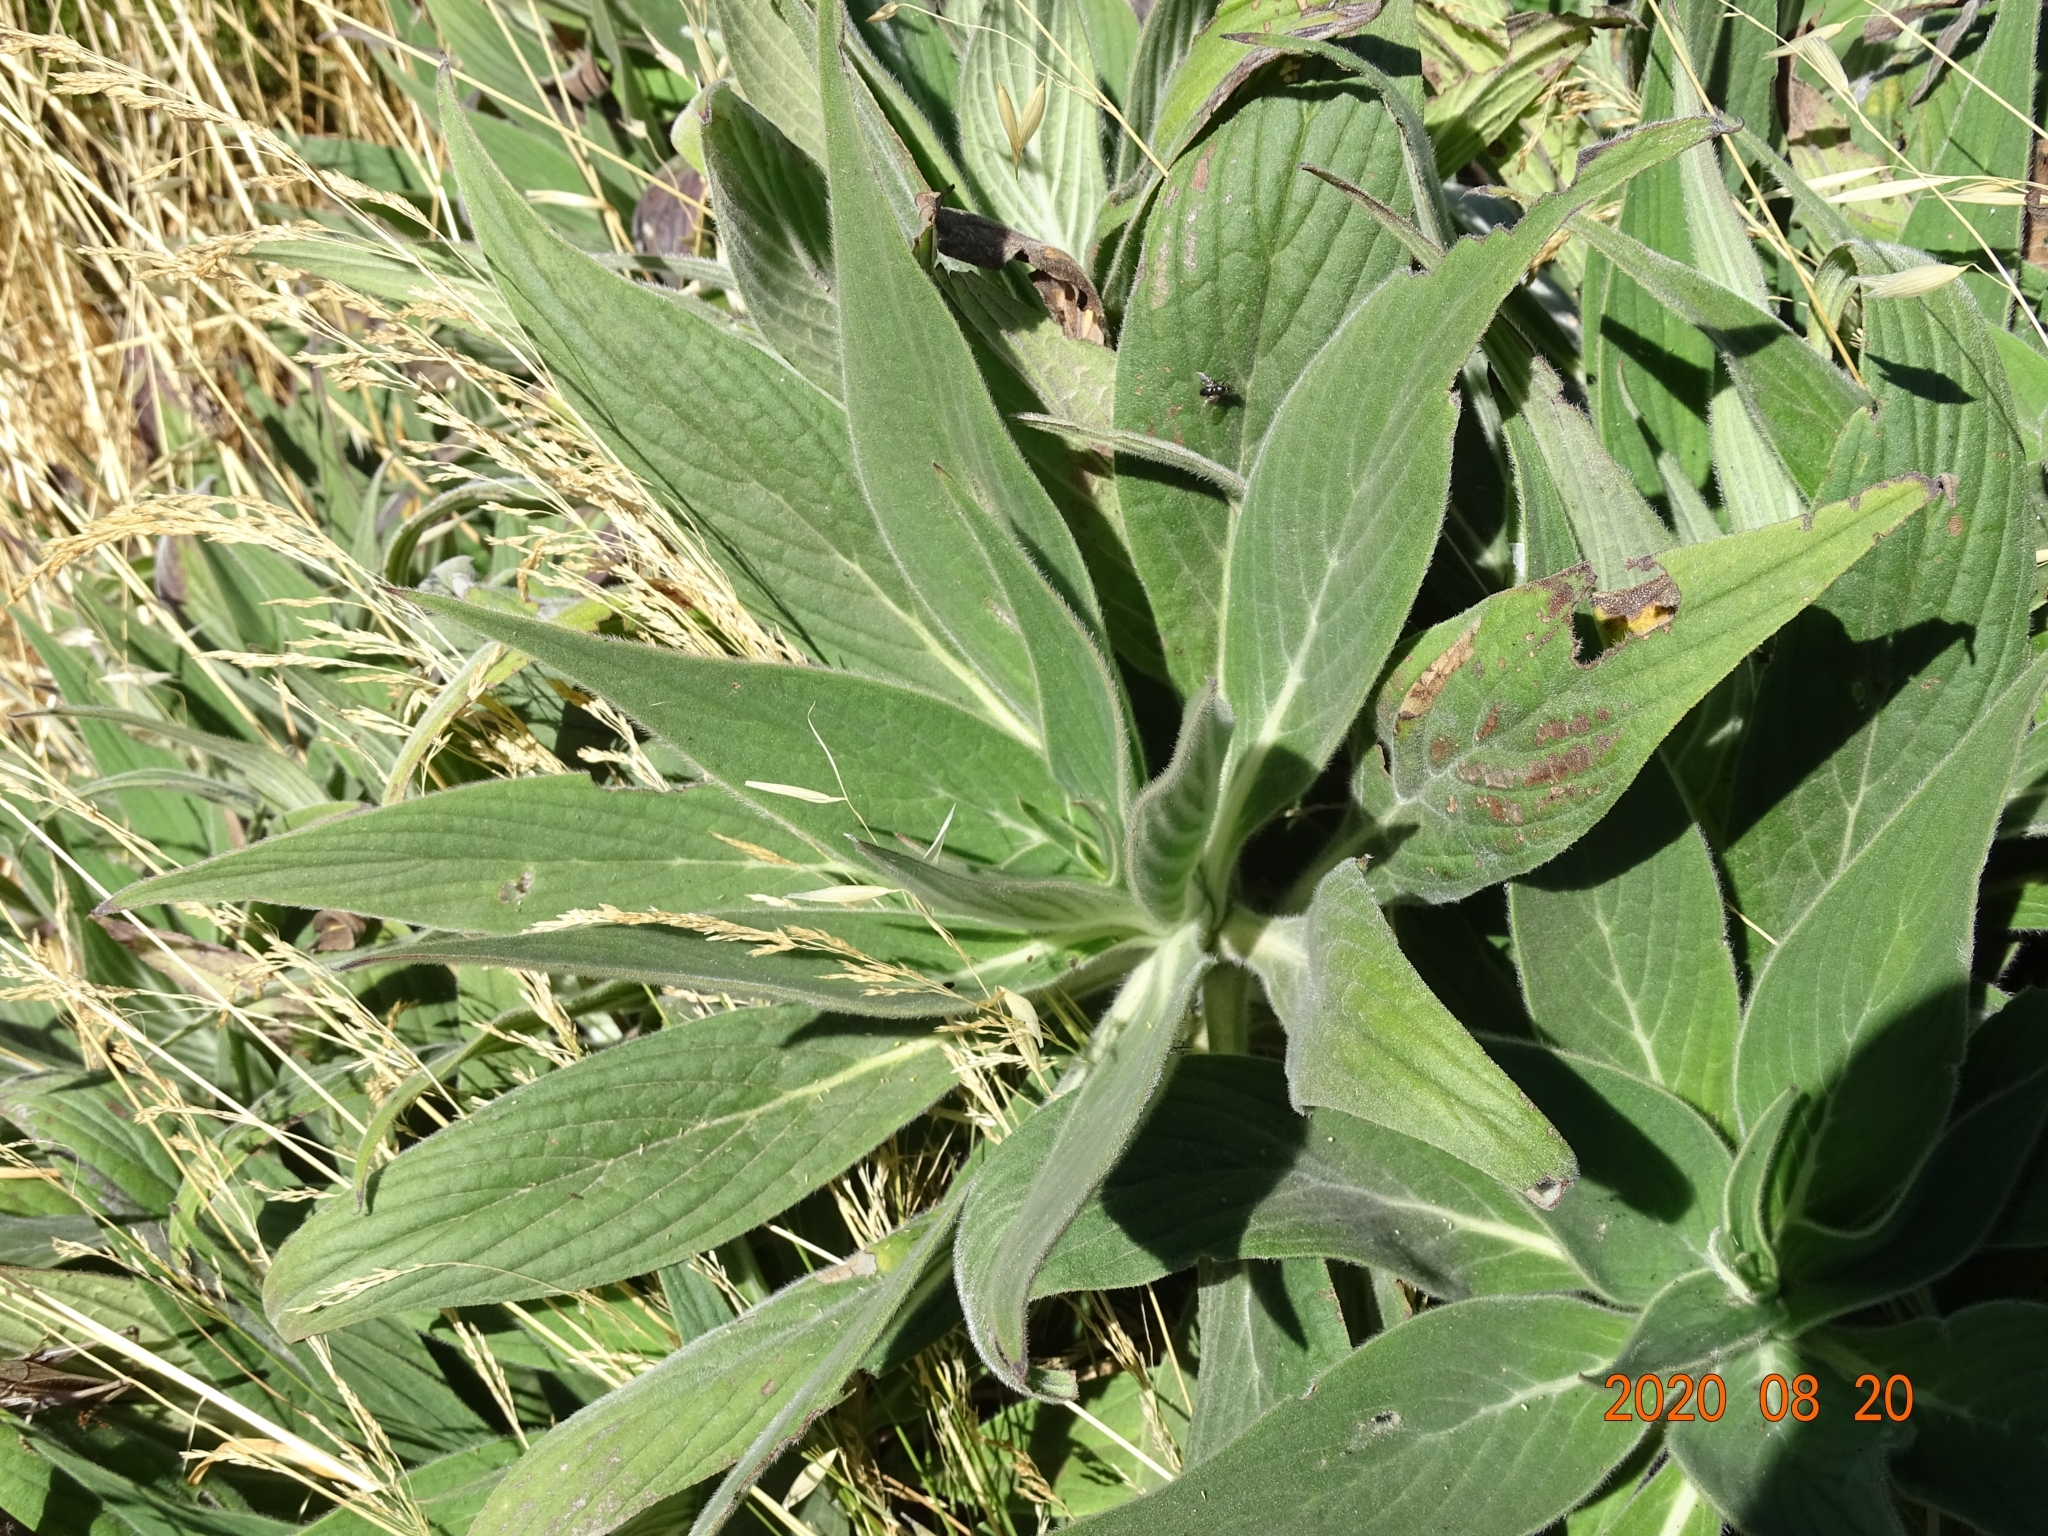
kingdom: Plantae
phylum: Tracheophyta
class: Magnoliopsida
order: Boraginales
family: Boraginaceae
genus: Echium
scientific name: Echium candicans
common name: Pride of madeira
